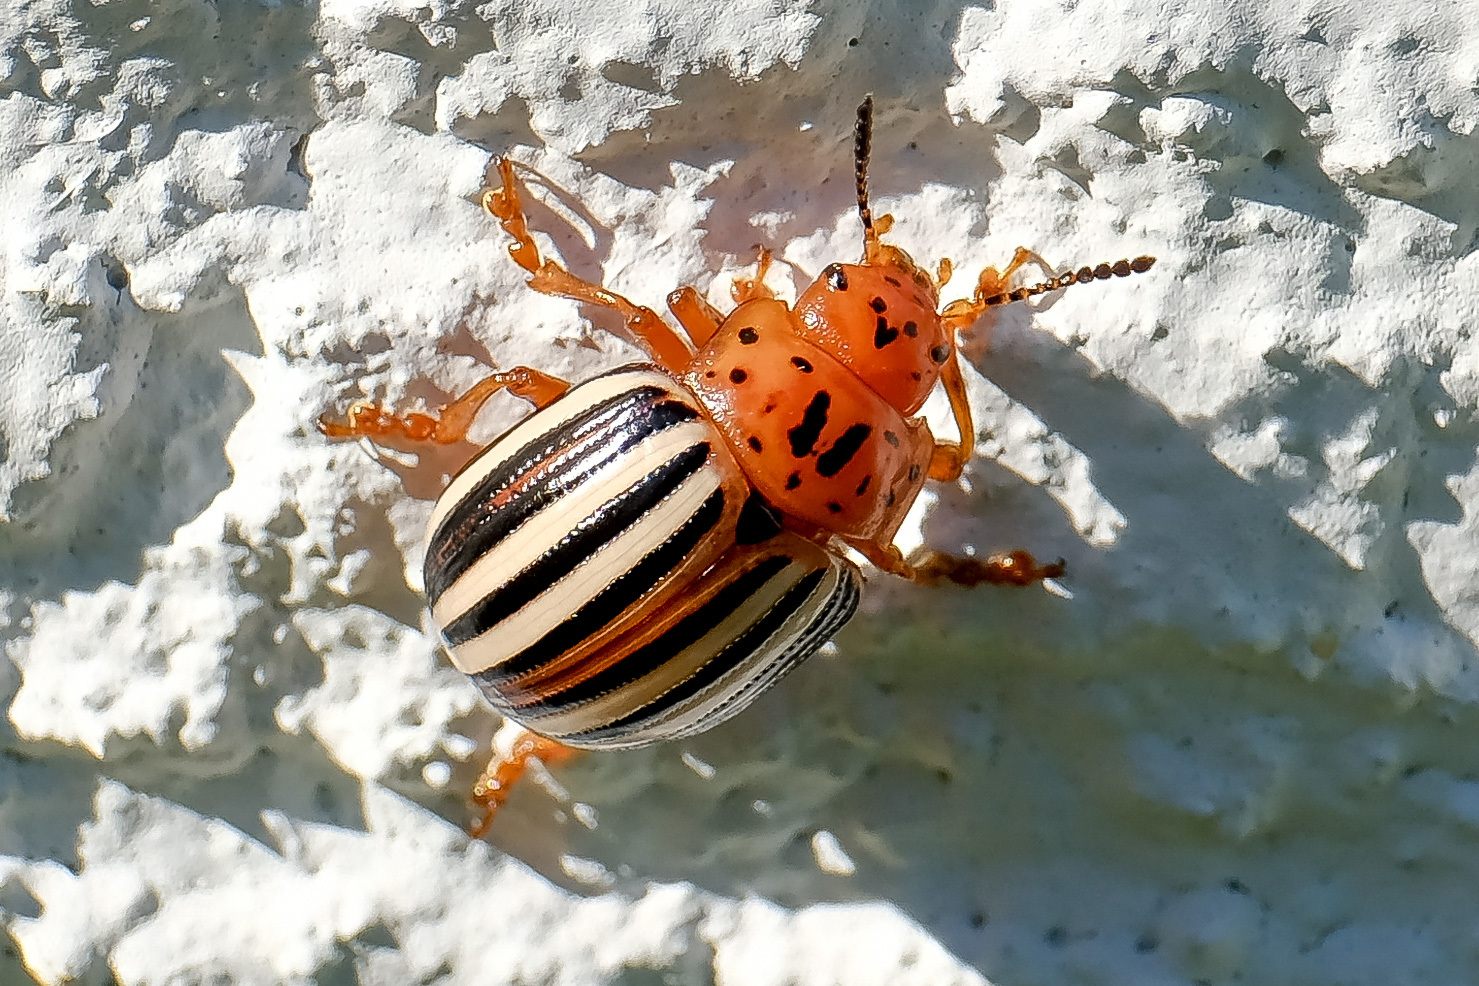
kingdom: Animalia
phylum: Arthropoda
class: Insecta
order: Coleoptera
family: Chrysomelidae
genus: Leptinotarsa
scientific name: Leptinotarsa juncta
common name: False potato beetle
